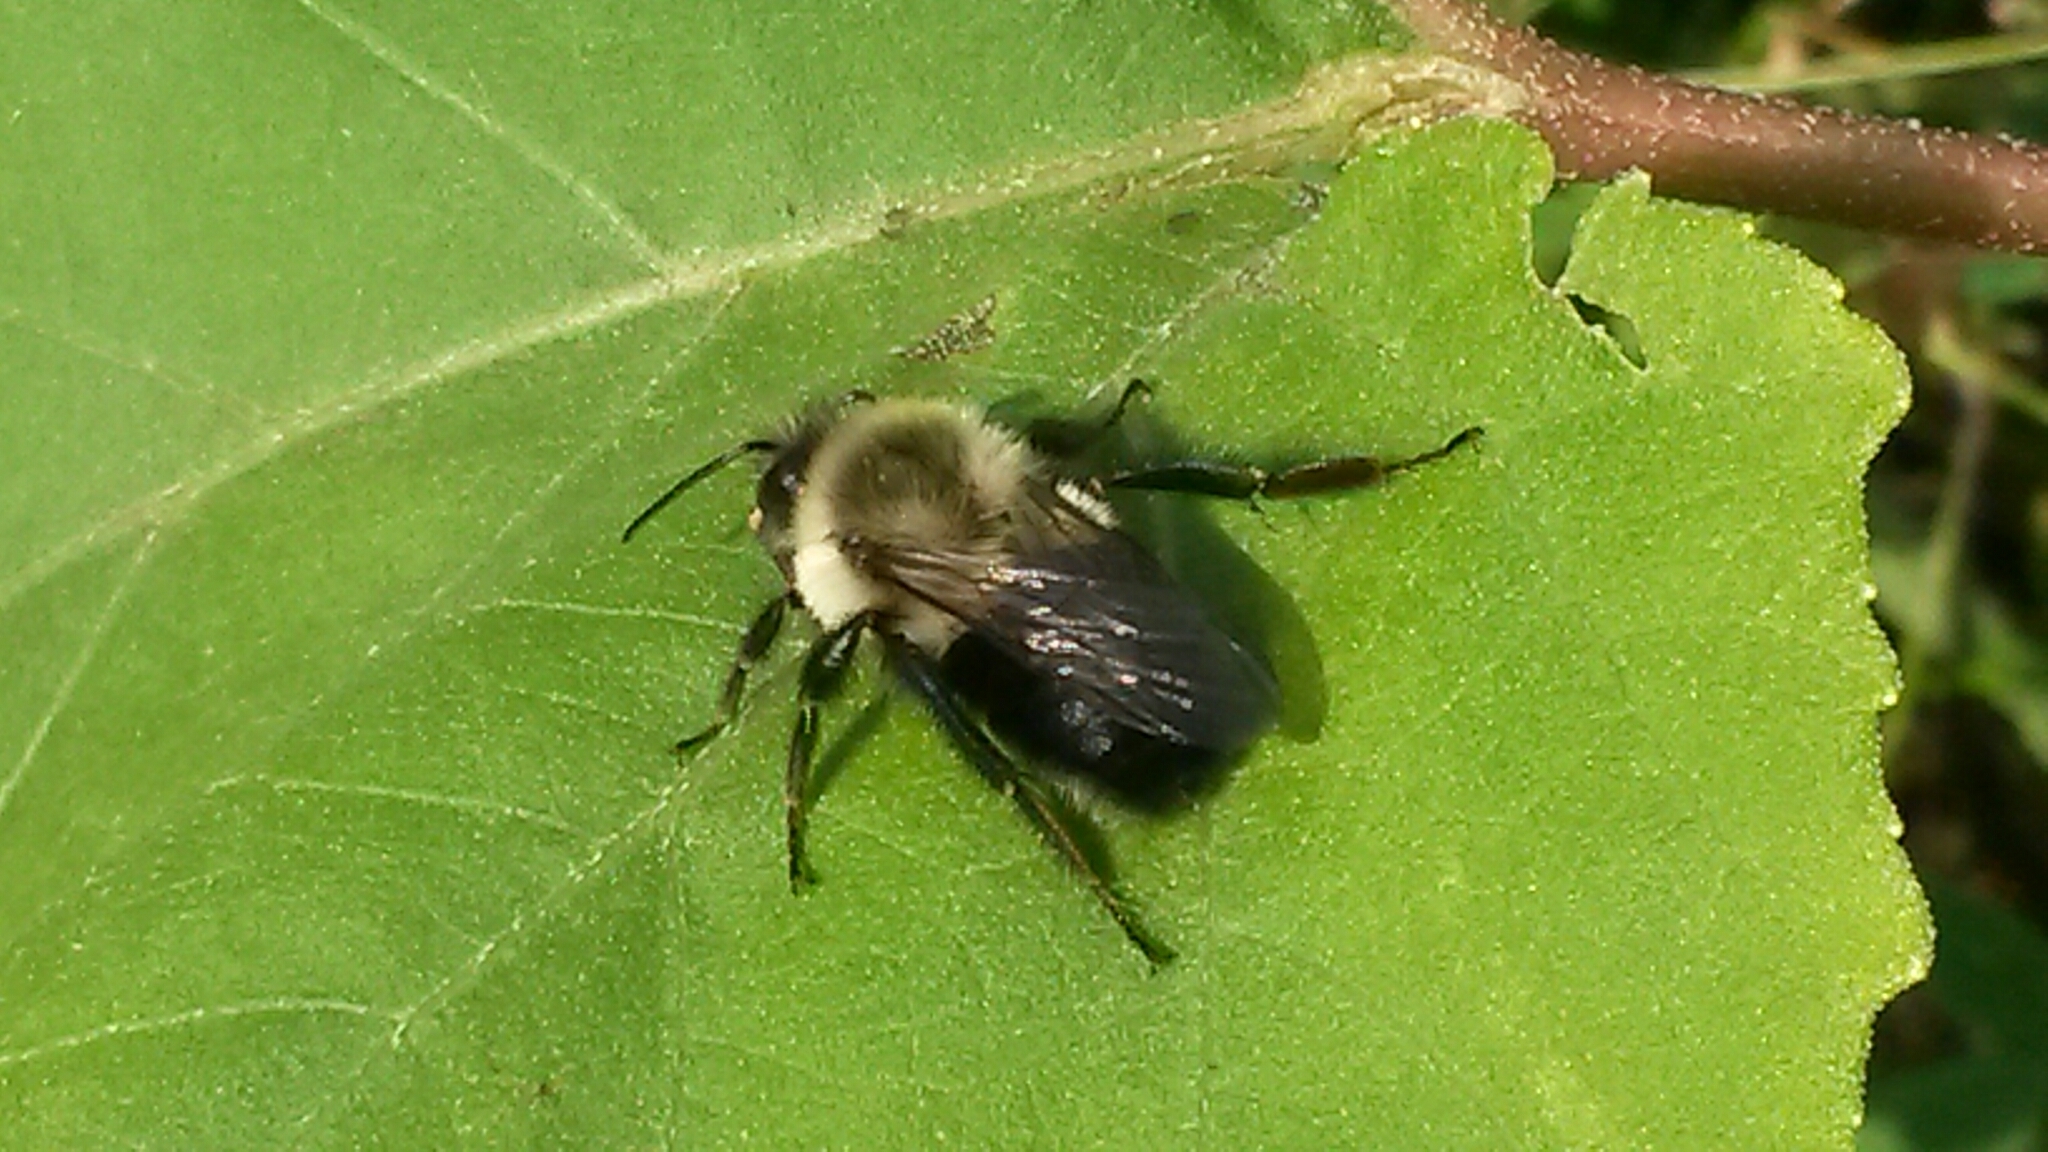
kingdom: Animalia
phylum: Arthropoda
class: Insecta
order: Hymenoptera
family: Apidae
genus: Bombus
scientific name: Bombus impatiens
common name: Common eastern bumble bee
